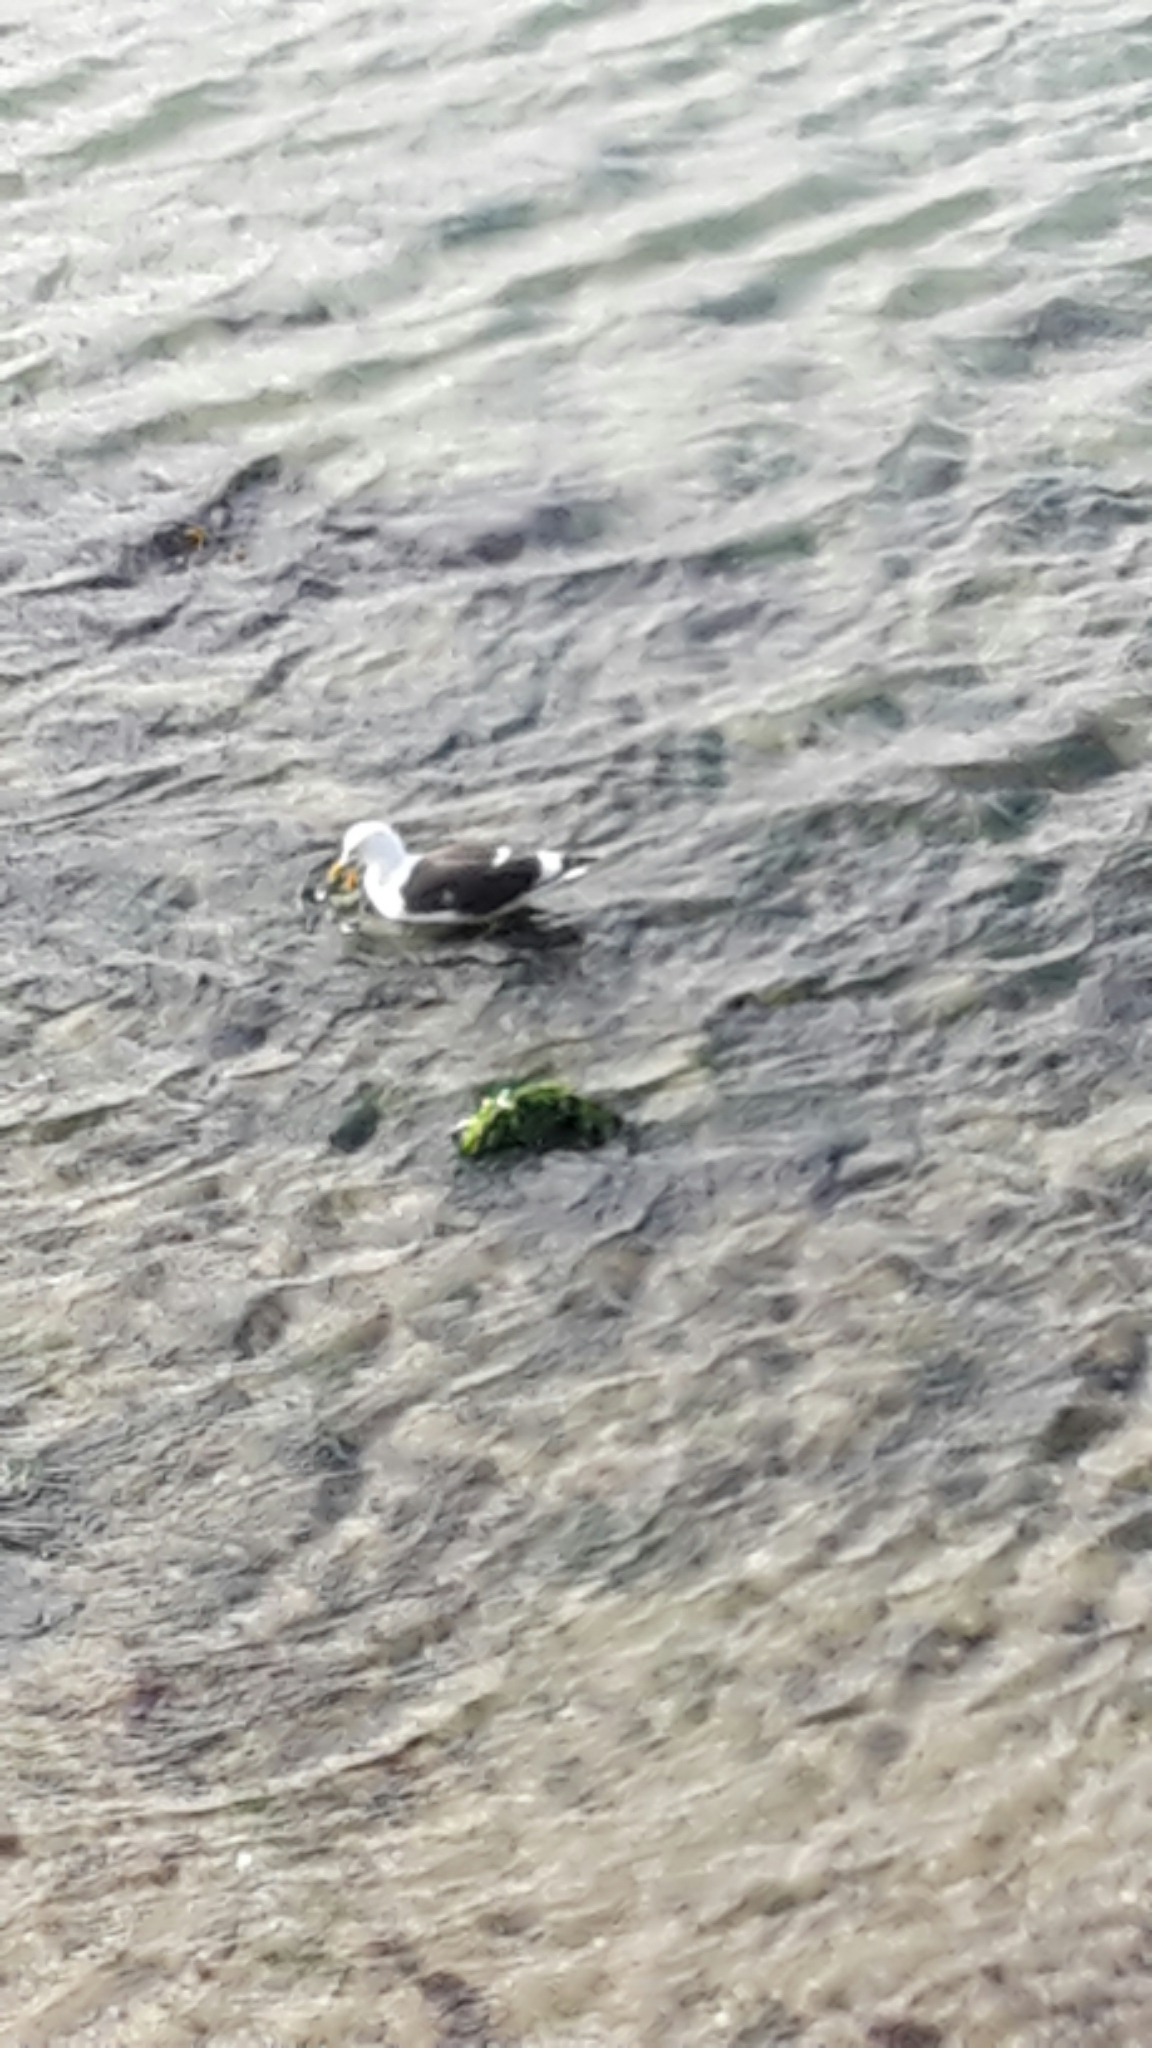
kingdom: Animalia
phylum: Chordata
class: Aves
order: Charadriiformes
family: Laridae
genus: Larus
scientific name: Larus dominicanus
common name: Kelp gull
